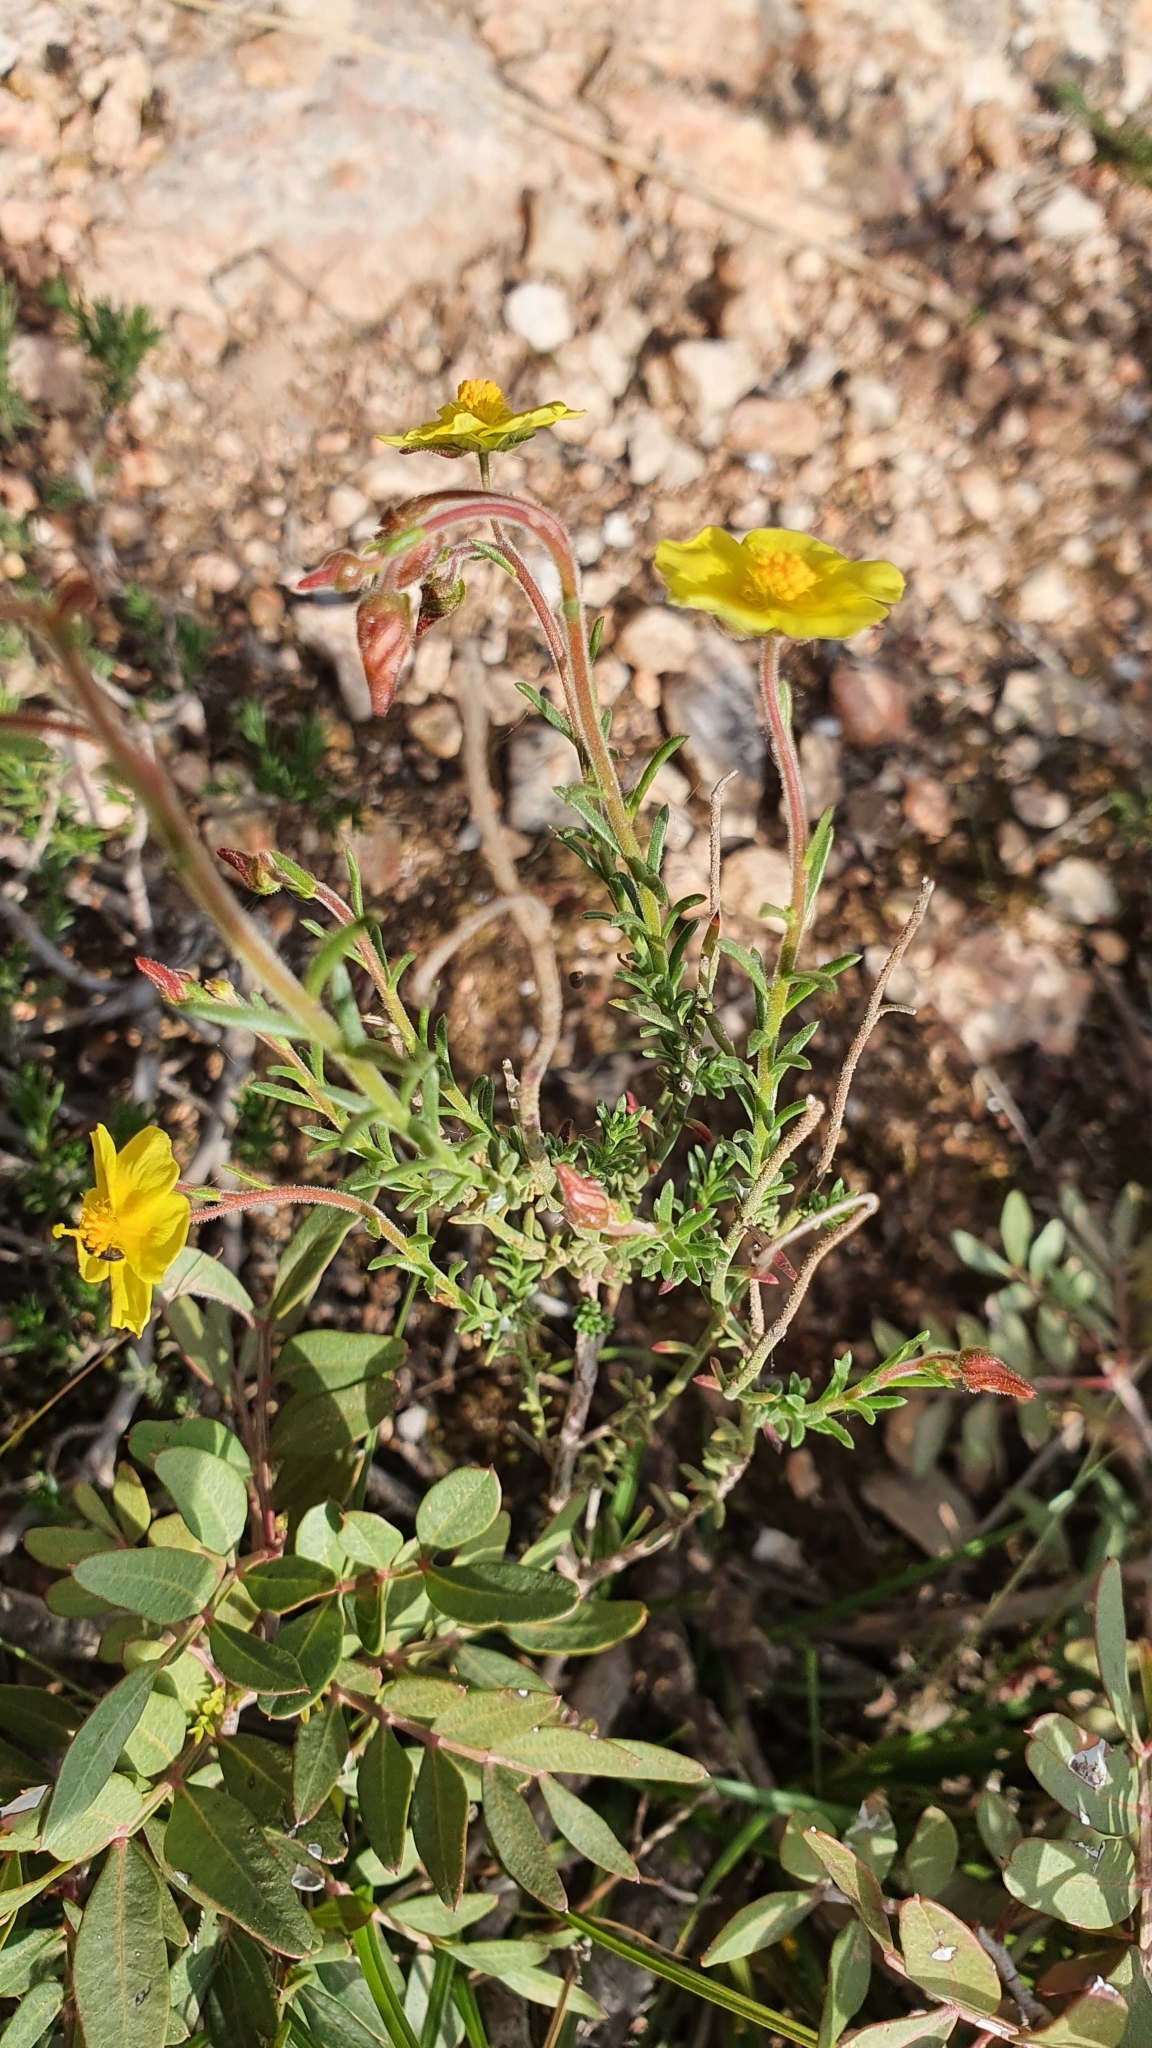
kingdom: Plantae
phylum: Tracheophyta
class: Magnoliopsida
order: Malvales
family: Cistaceae
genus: Fumana
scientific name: Fumana scoparia
